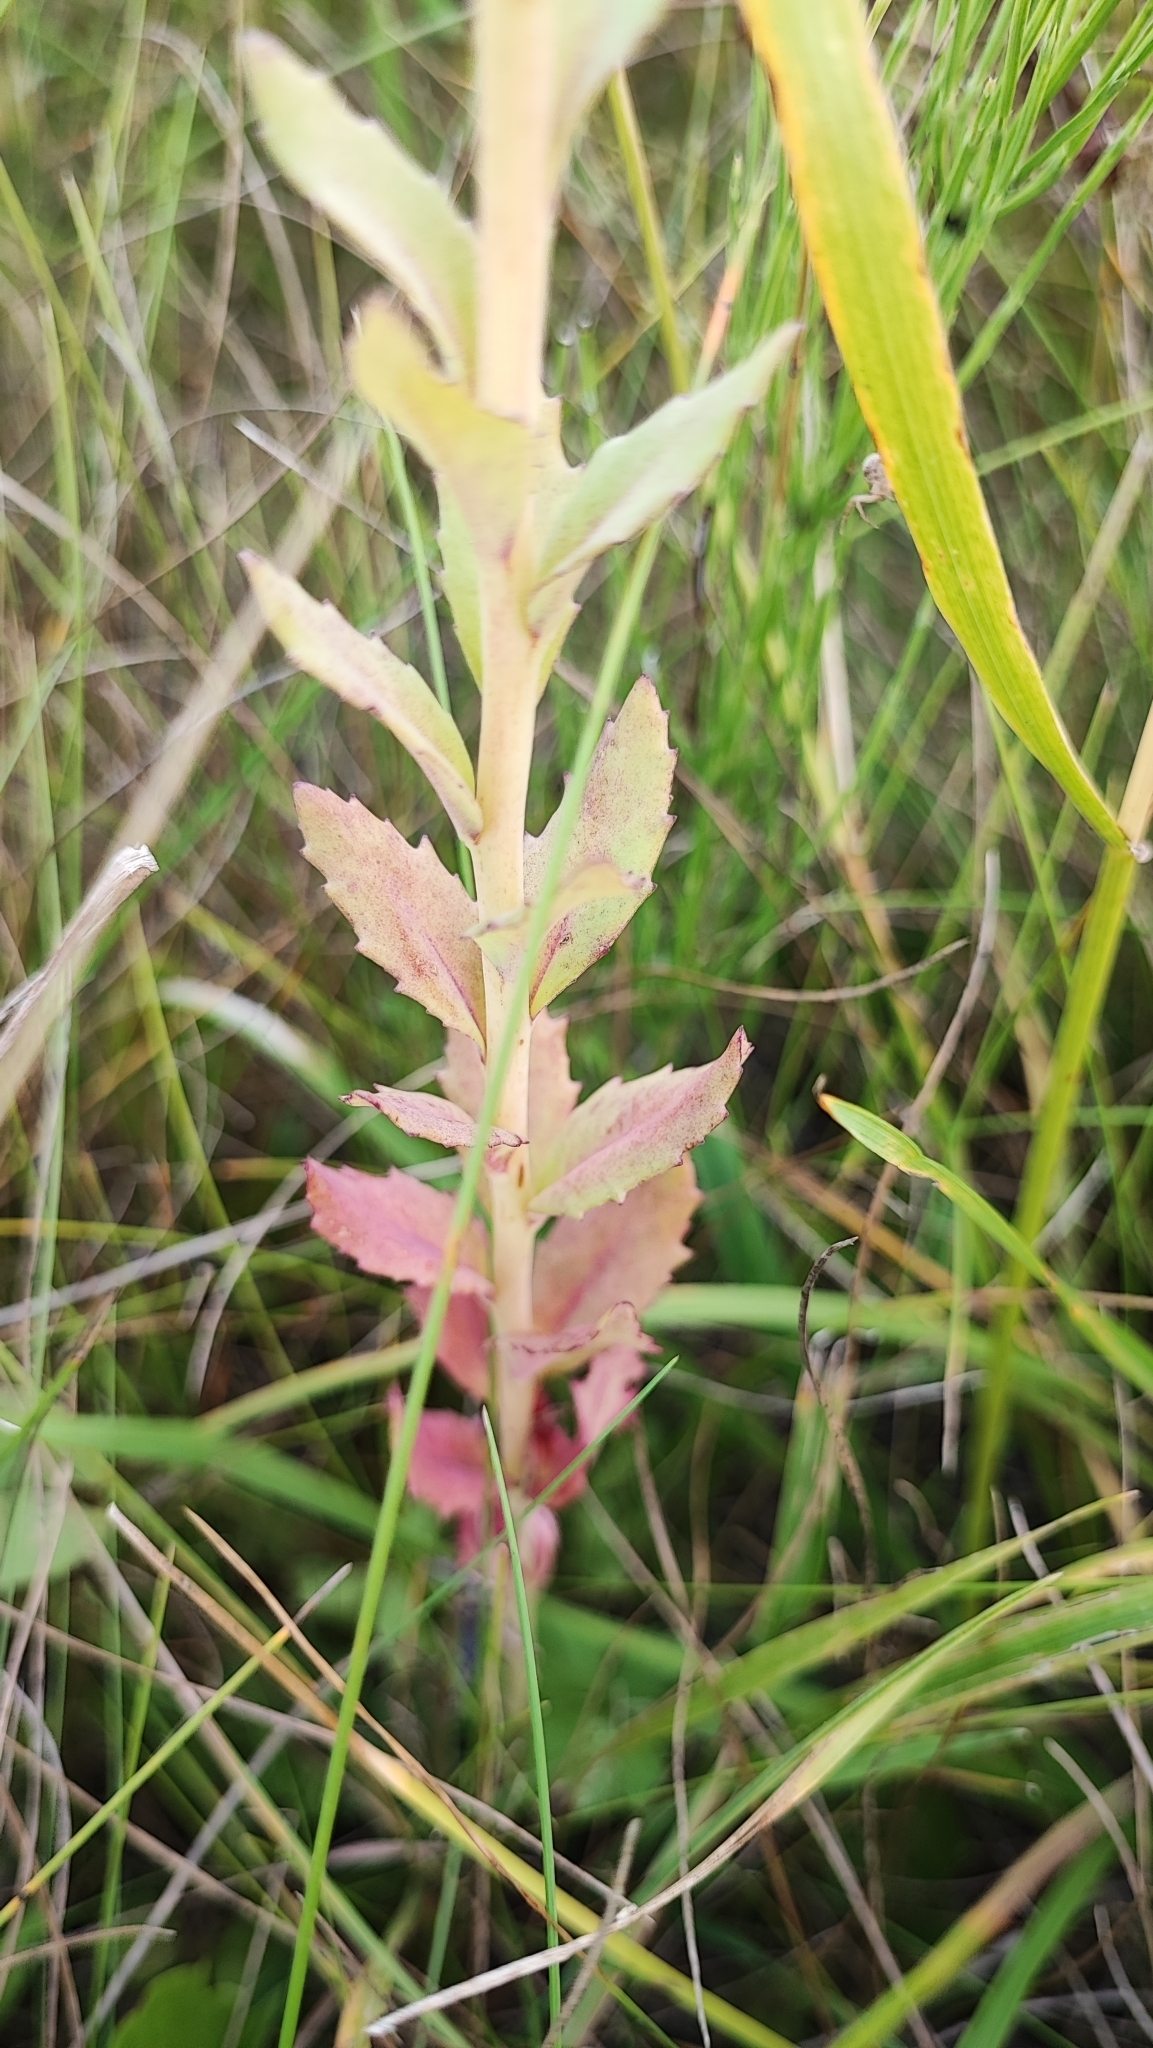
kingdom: Plantae
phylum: Tracheophyta
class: Magnoliopsida
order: Saxifragales
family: Crassulaceae
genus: Hylotelephium
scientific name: Hylotelephium telephium
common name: Live-forever
